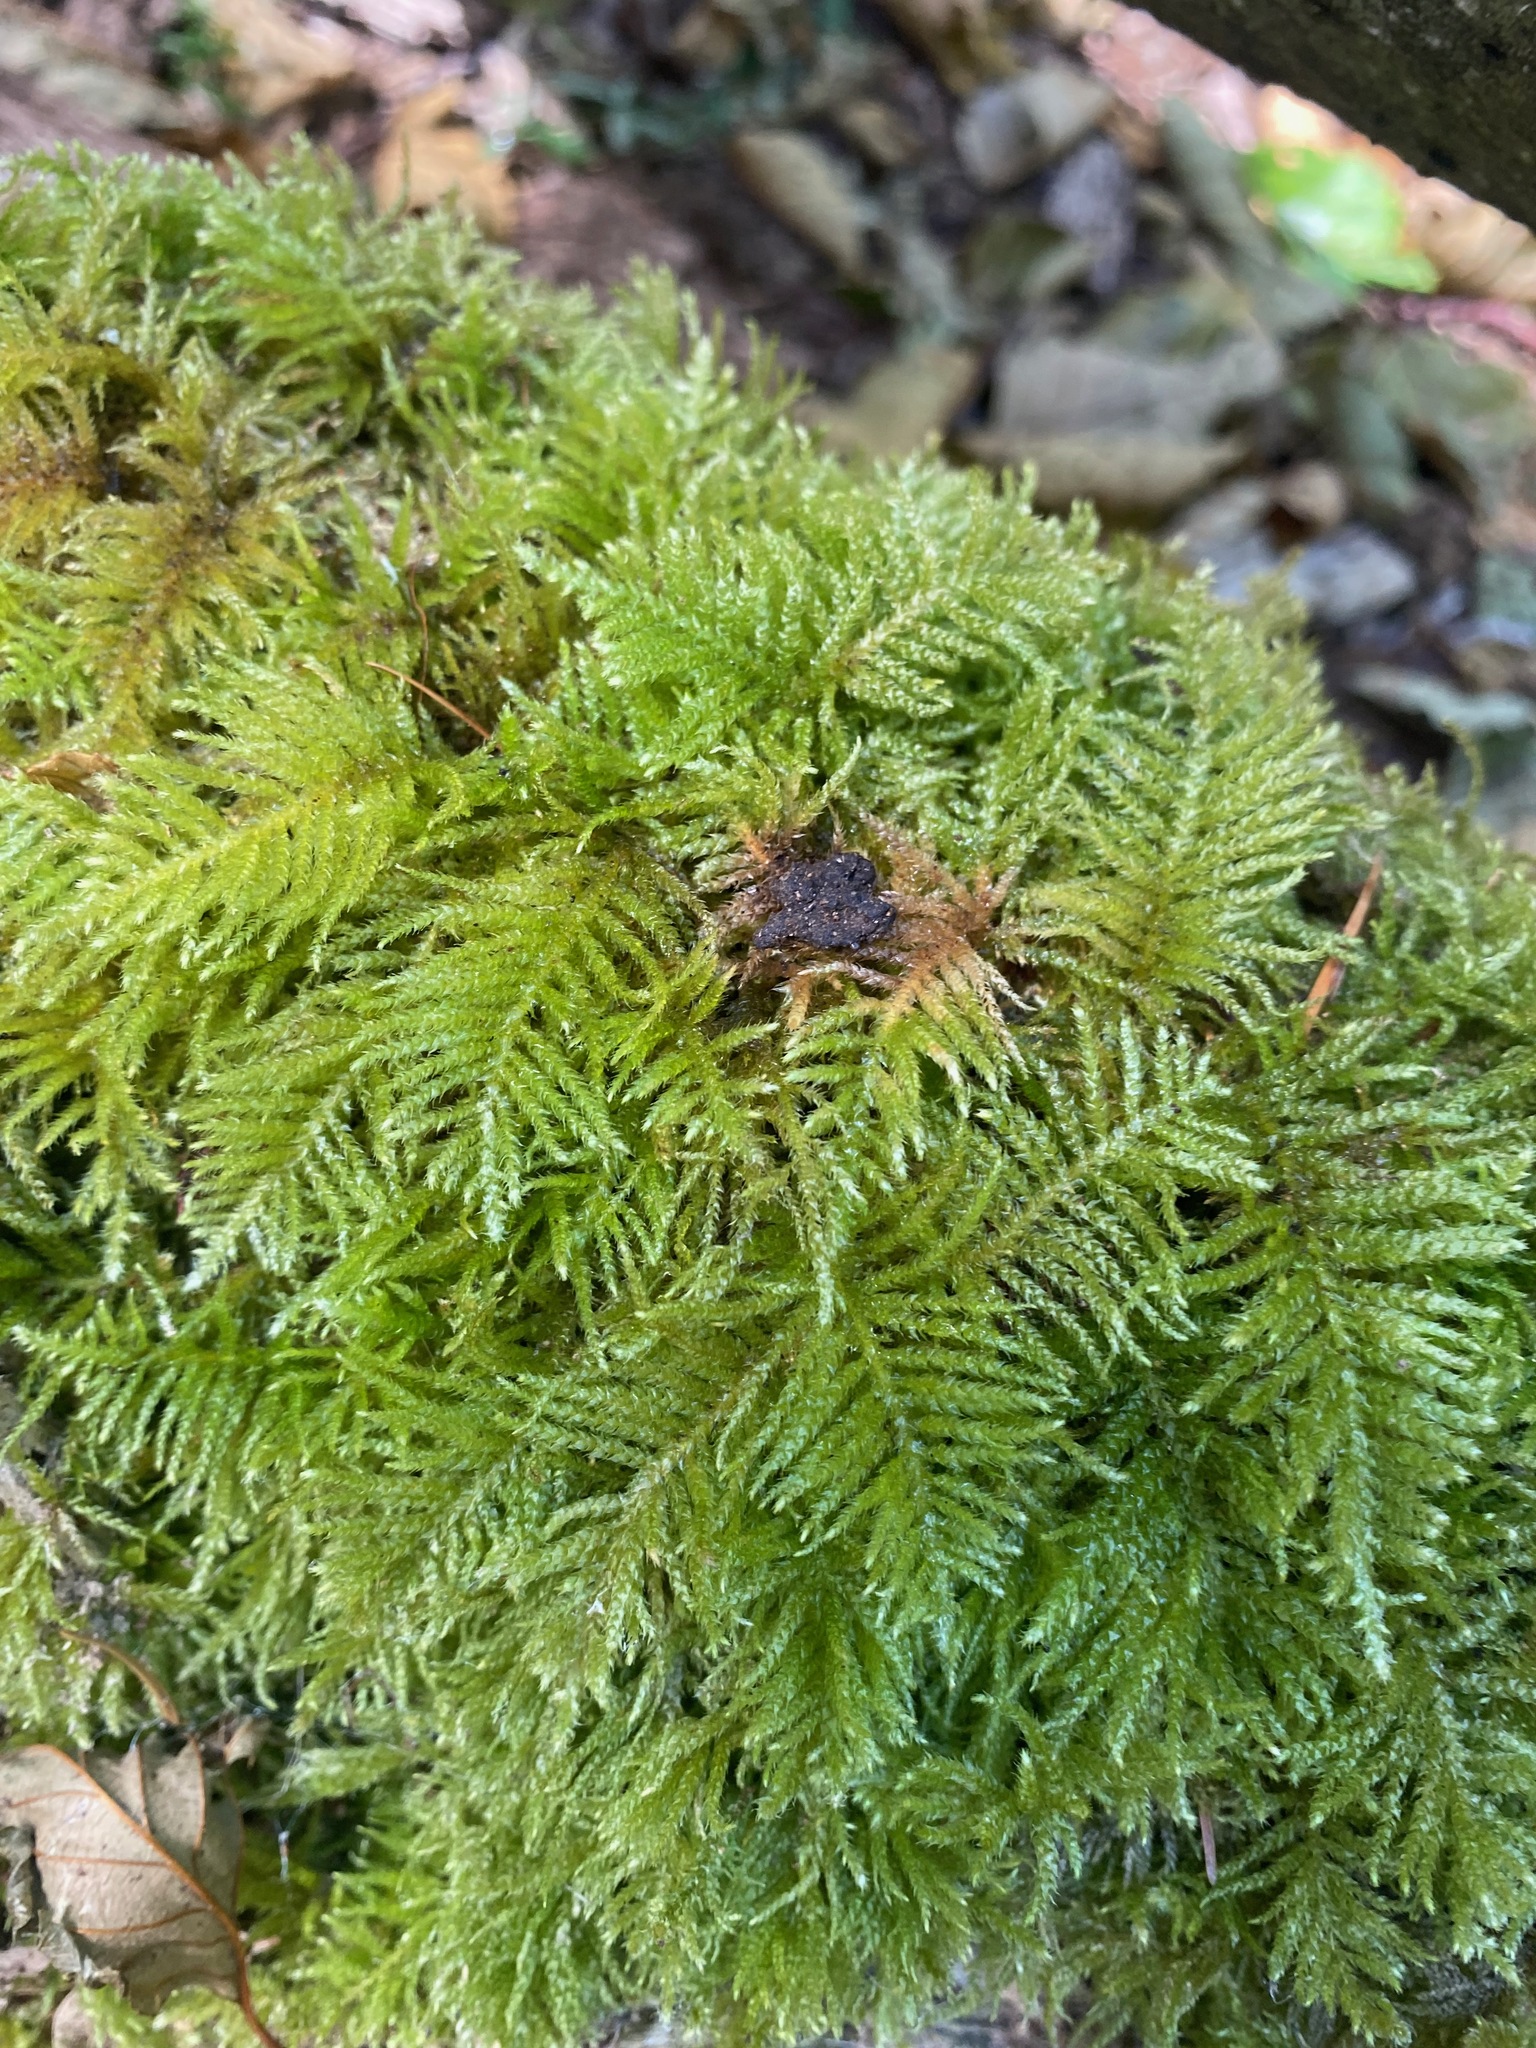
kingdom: Plantae
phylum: Bryophyta
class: Bryopsida
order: Hypnales
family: Brachytheciaceae
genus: Kindbergia
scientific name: Kindbergia oregana
